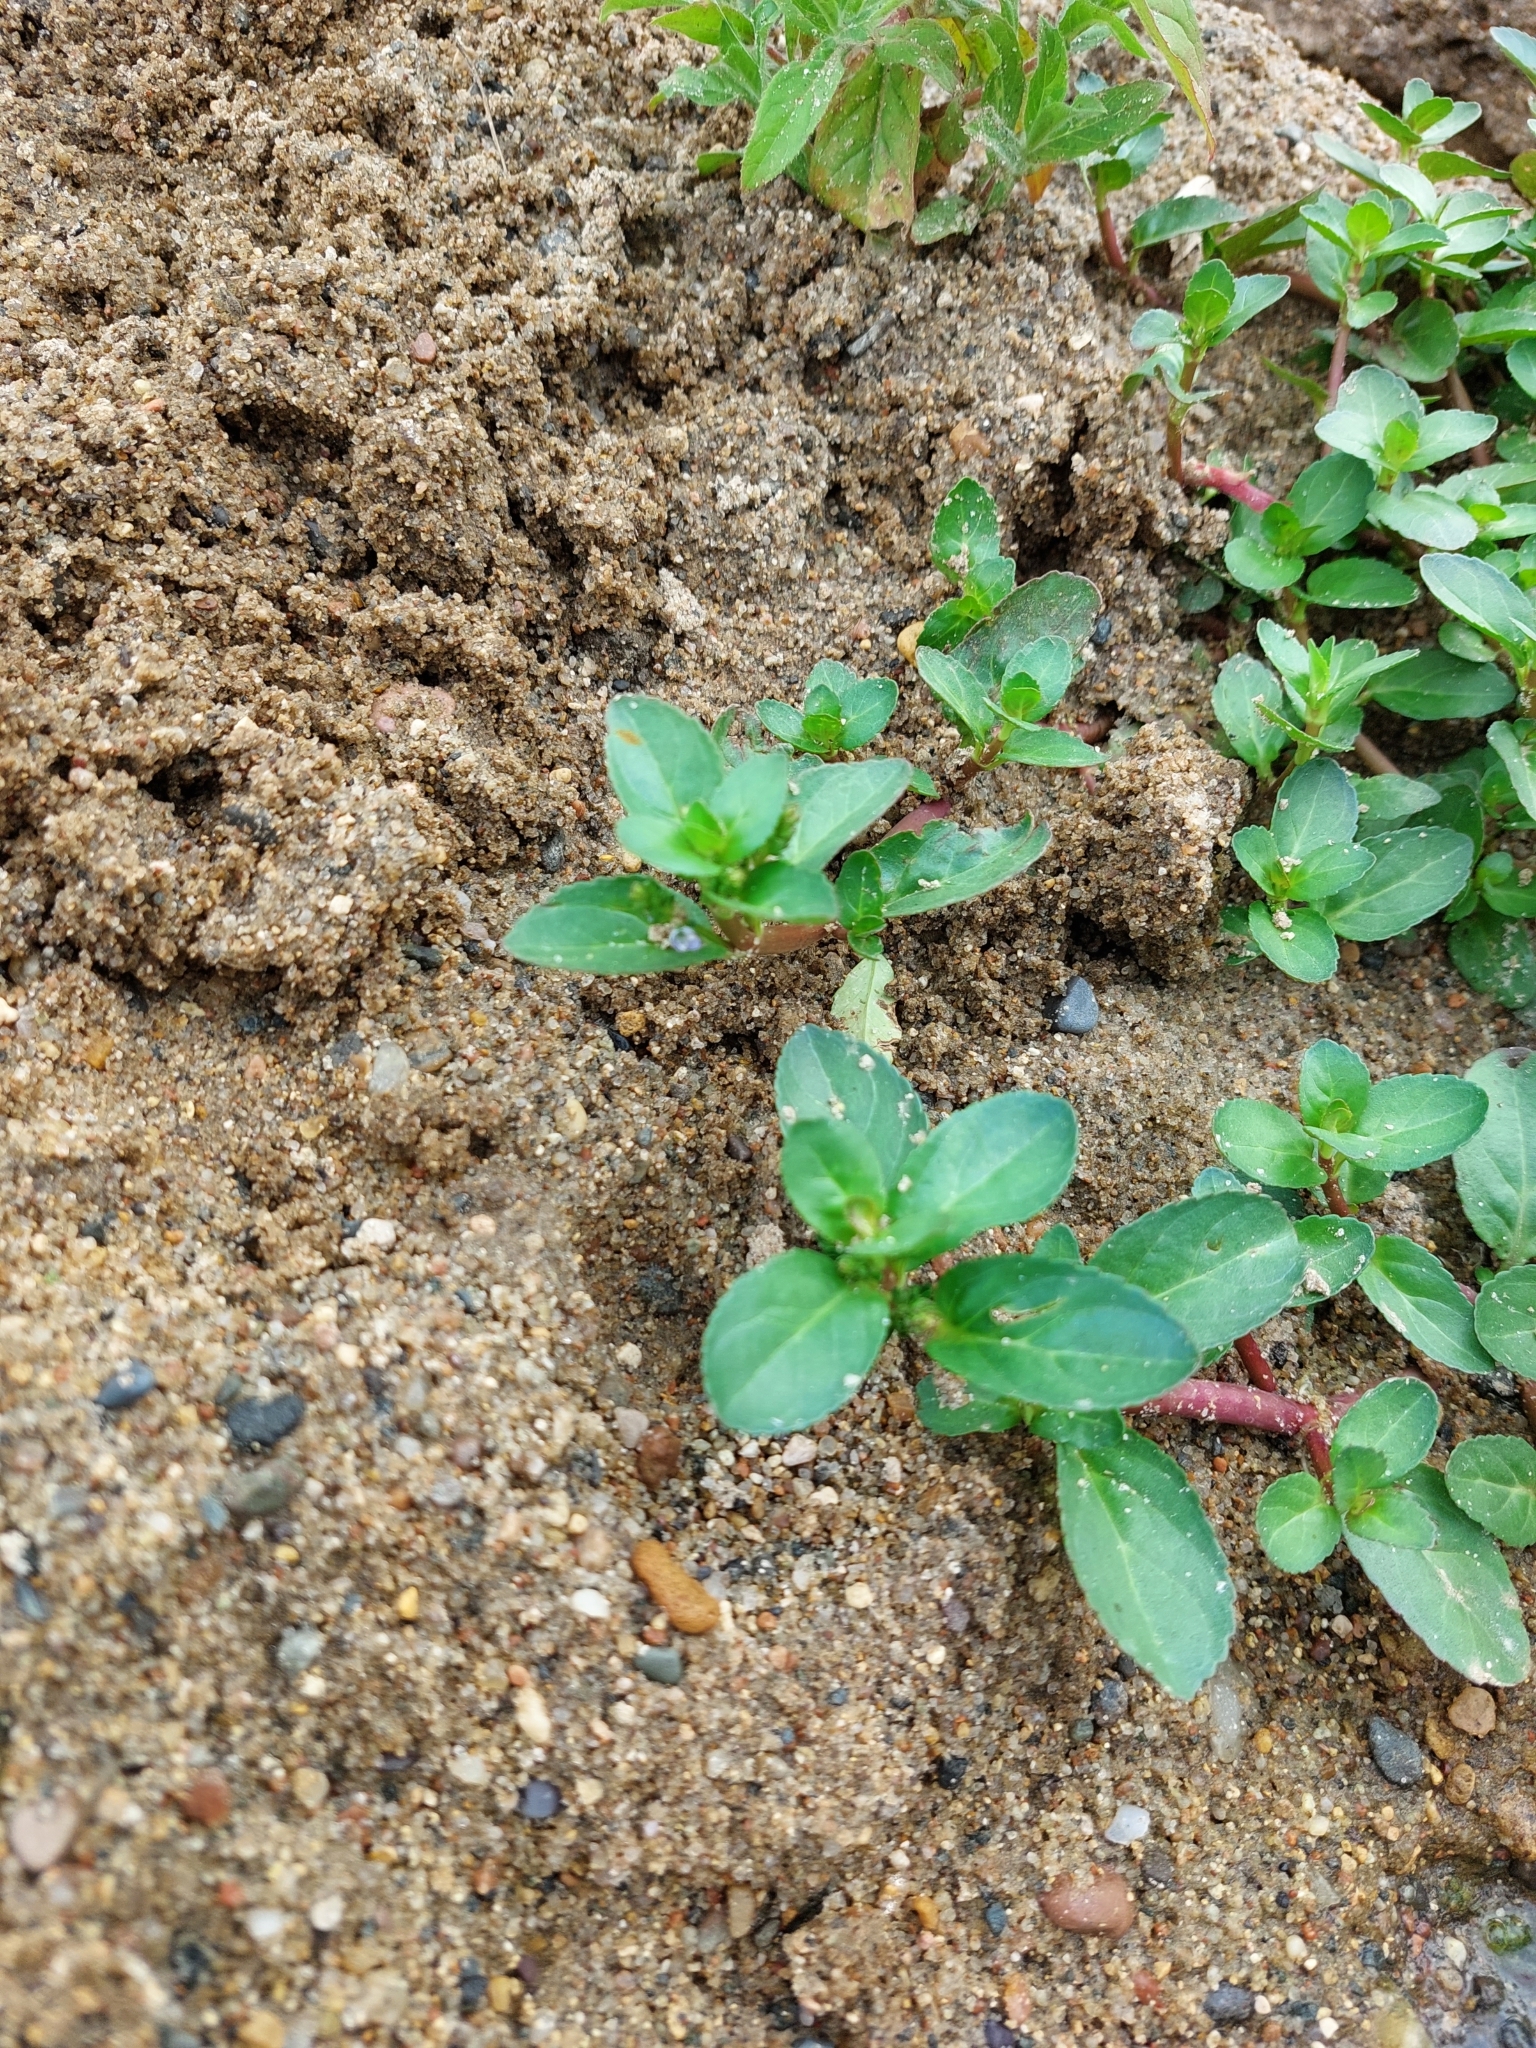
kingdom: Plantae
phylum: Tracheophyta
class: Magnoliopsida
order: Lamiales
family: Plantaginaceae
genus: Veronica
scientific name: Veronica beccabunga
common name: Brooklime
